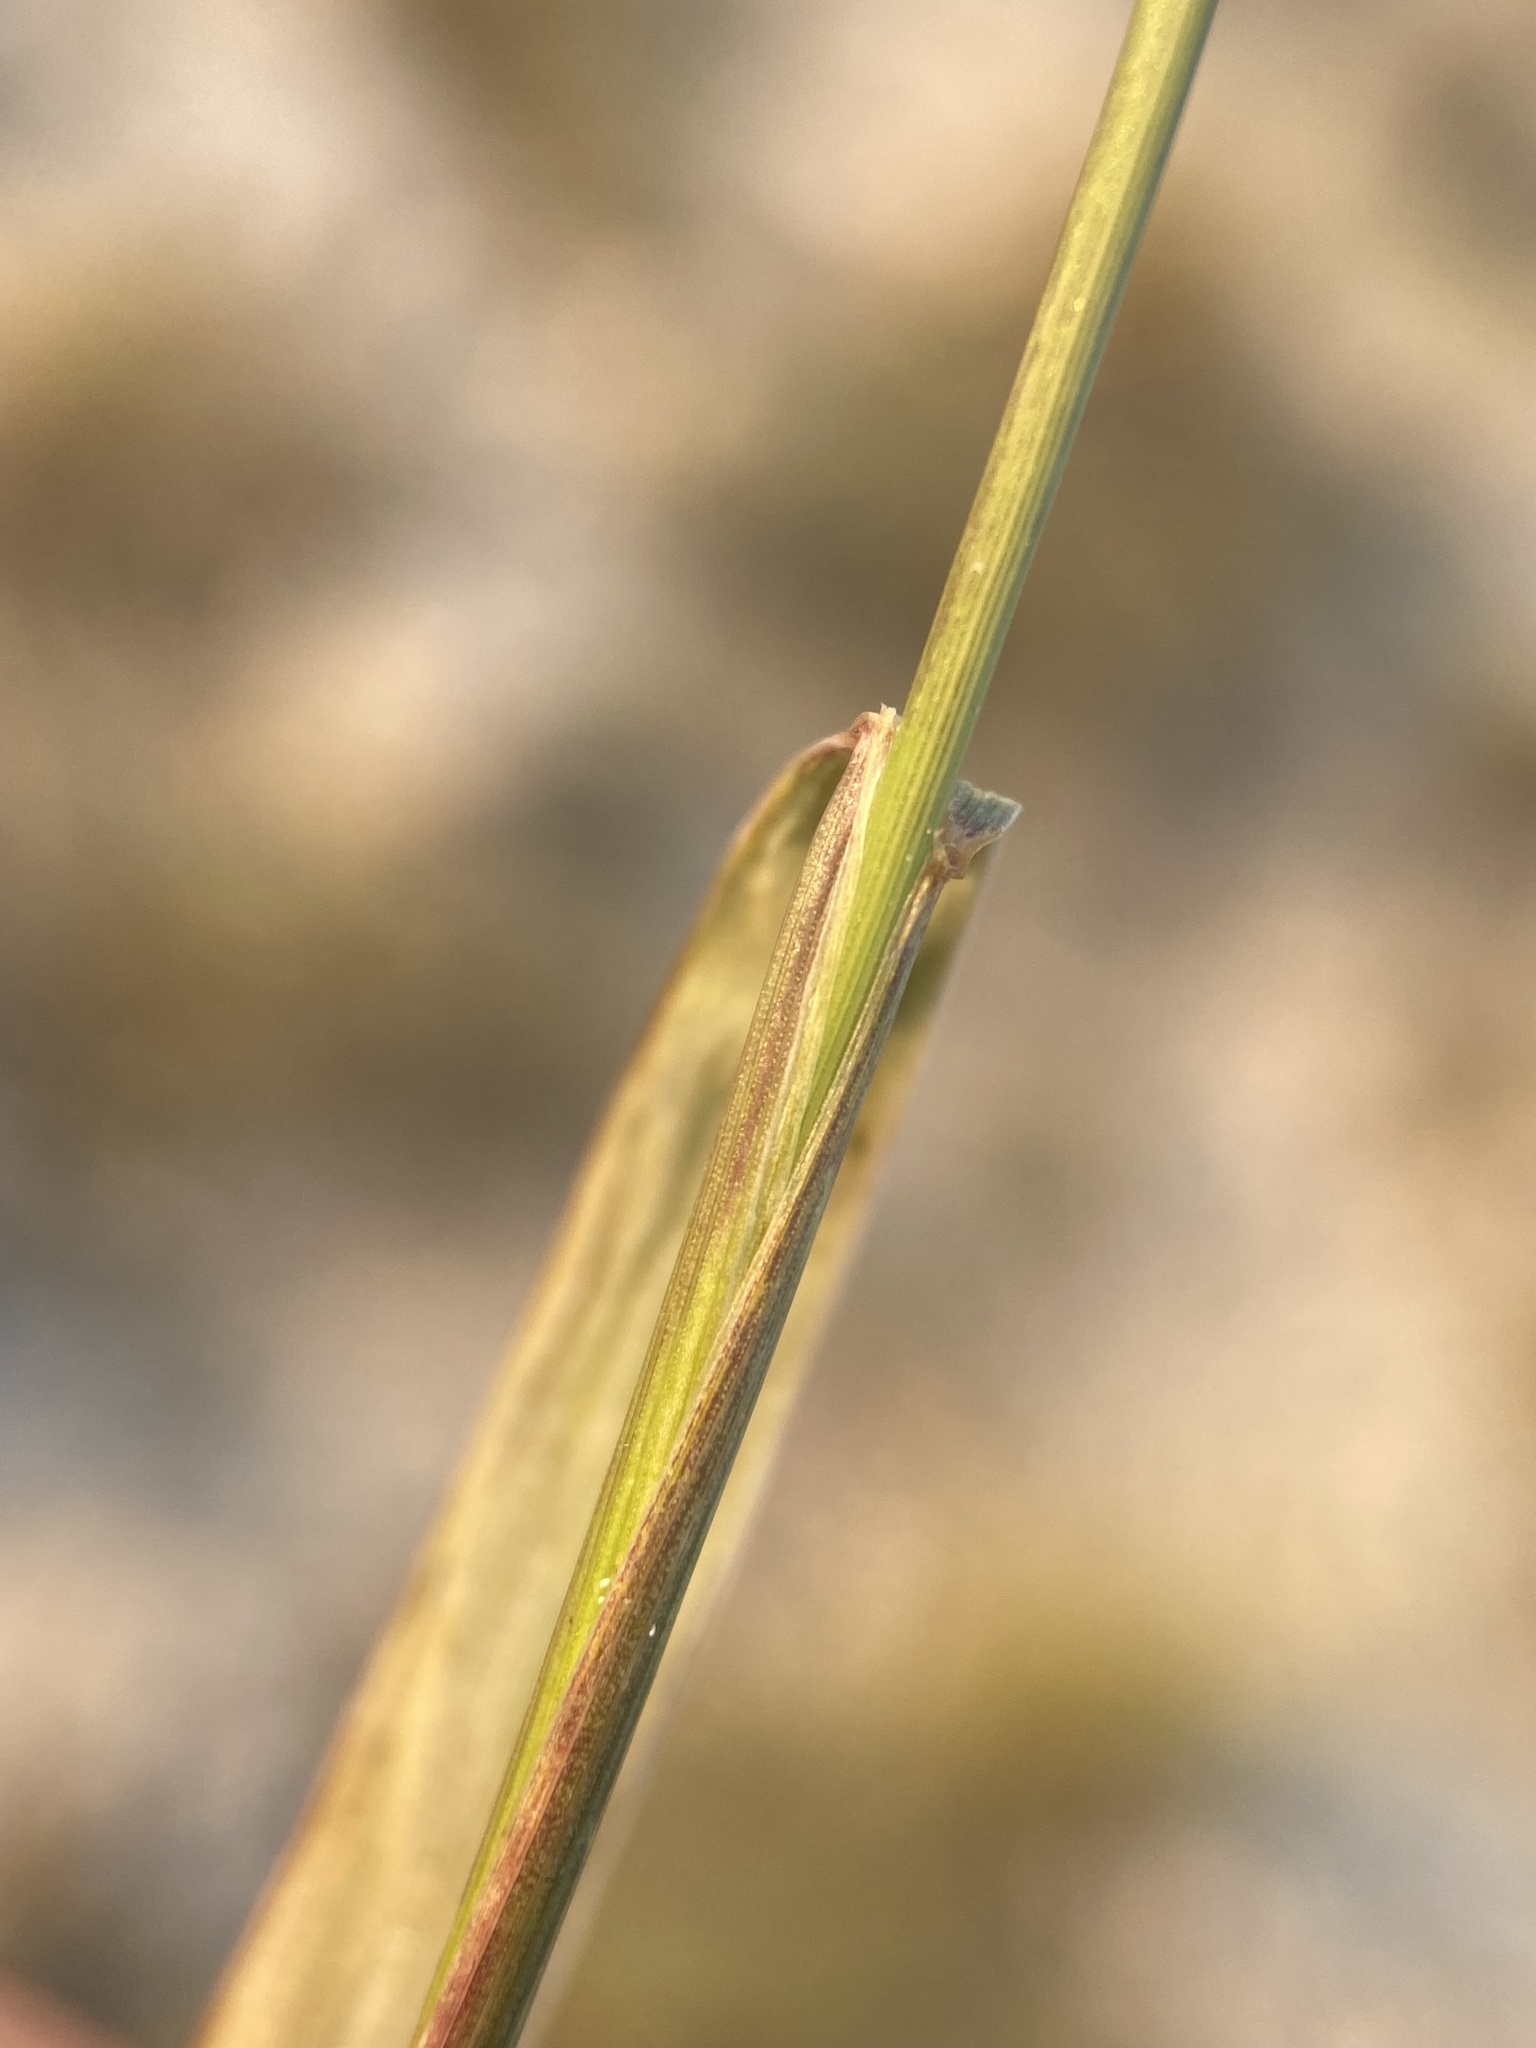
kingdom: Plantae
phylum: Tracheophyta
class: Liliopsida
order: Poales
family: Poaceae
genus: Elymus
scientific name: Elymus violaceus
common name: Arctic wheatgrass
